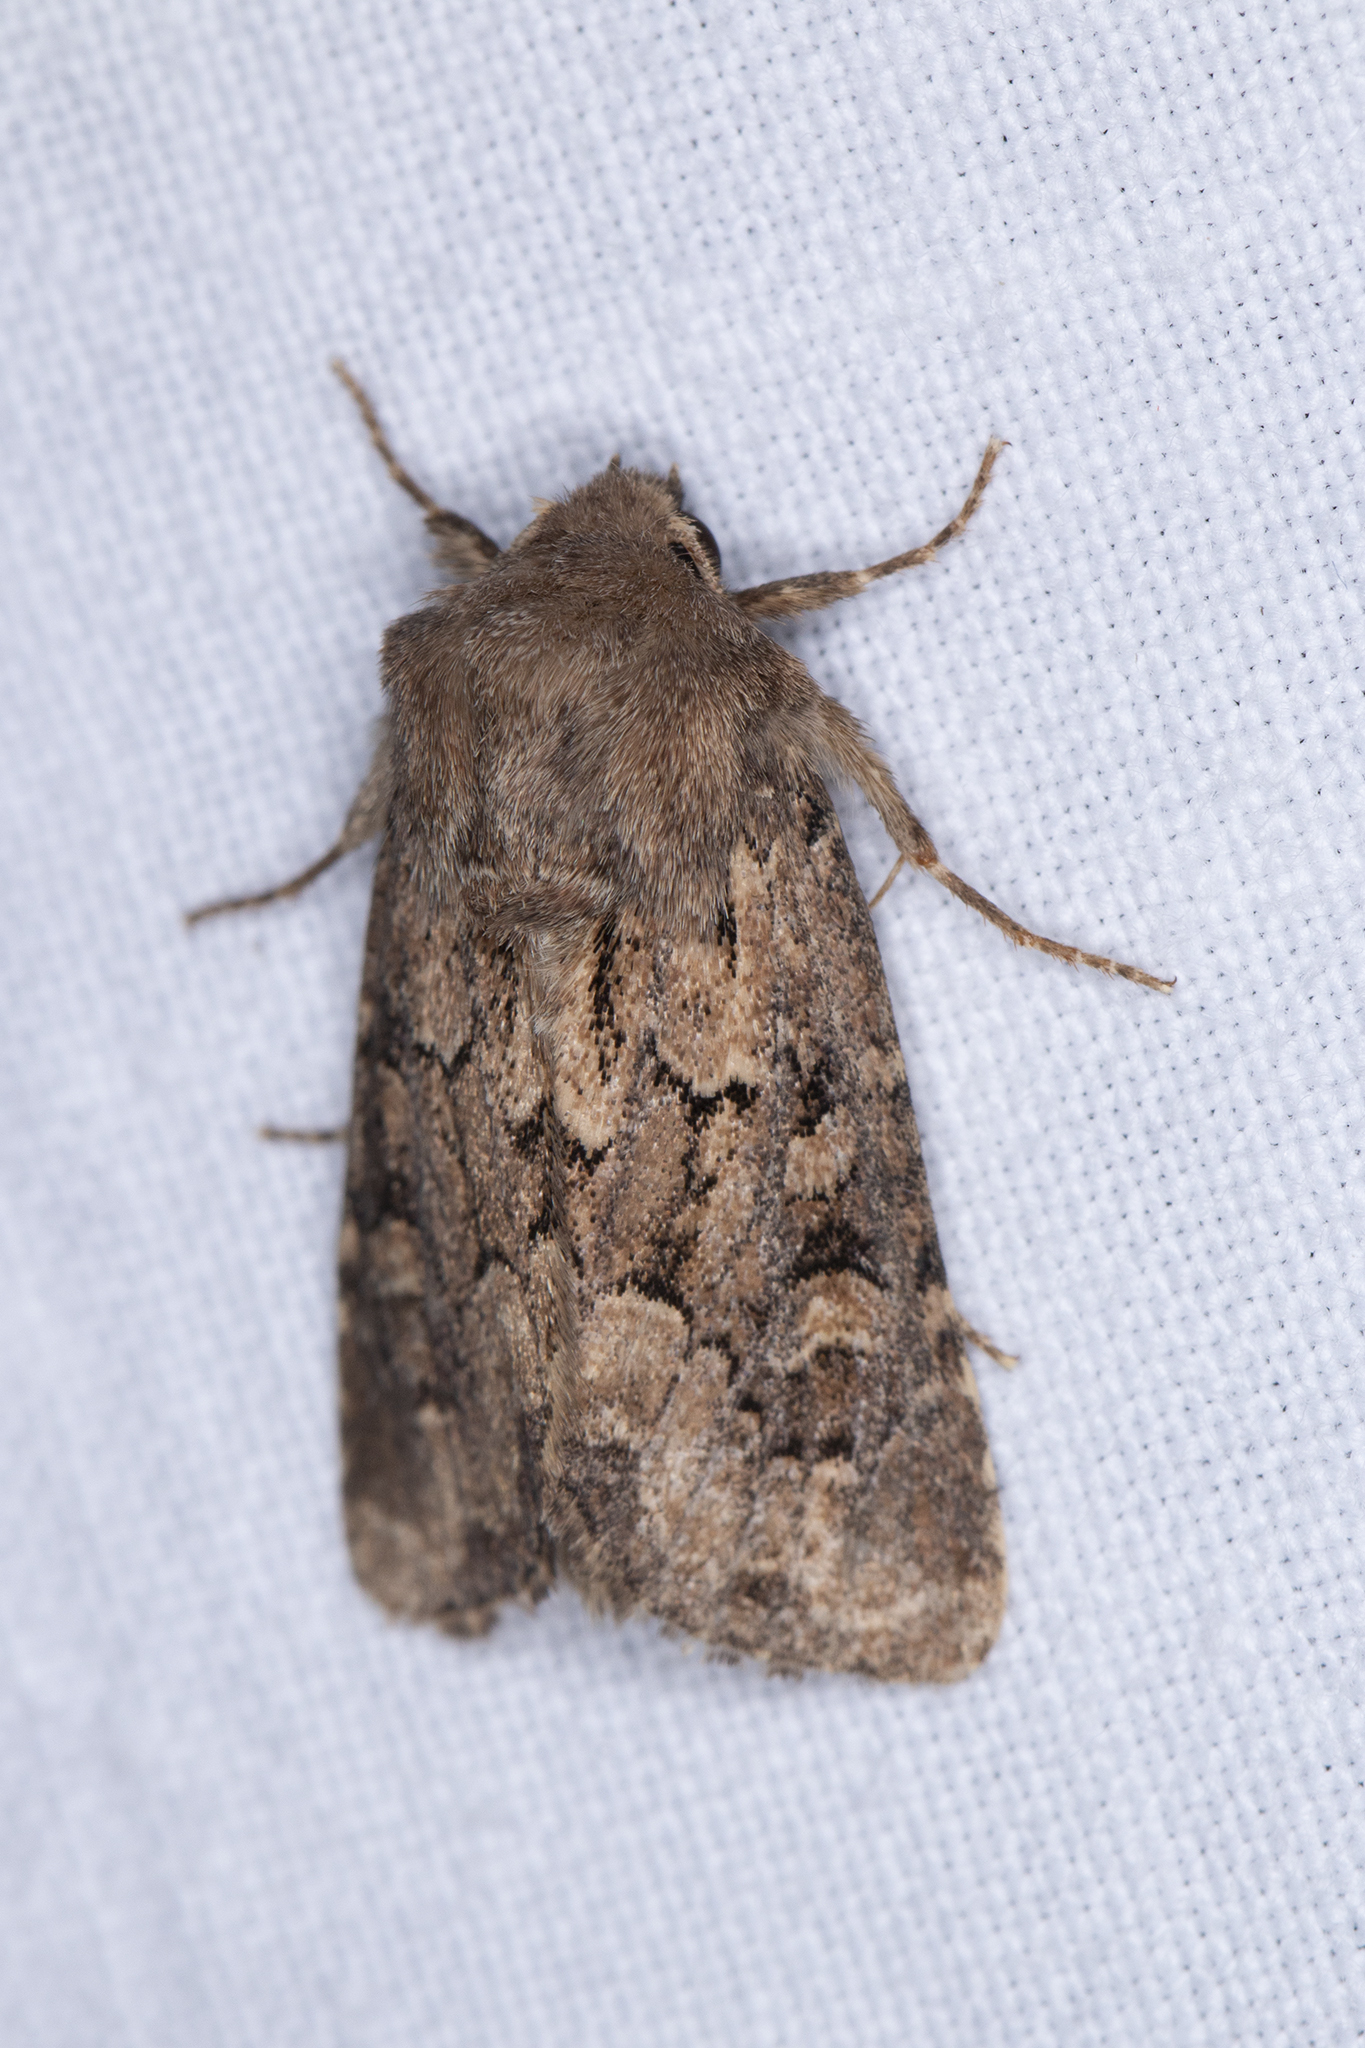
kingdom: Animalia
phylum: Arthropoda
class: Insecta
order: Lepidoptera
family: Noctuidae
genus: Luperina
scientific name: Luperina testacea
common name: Flounced rustic
